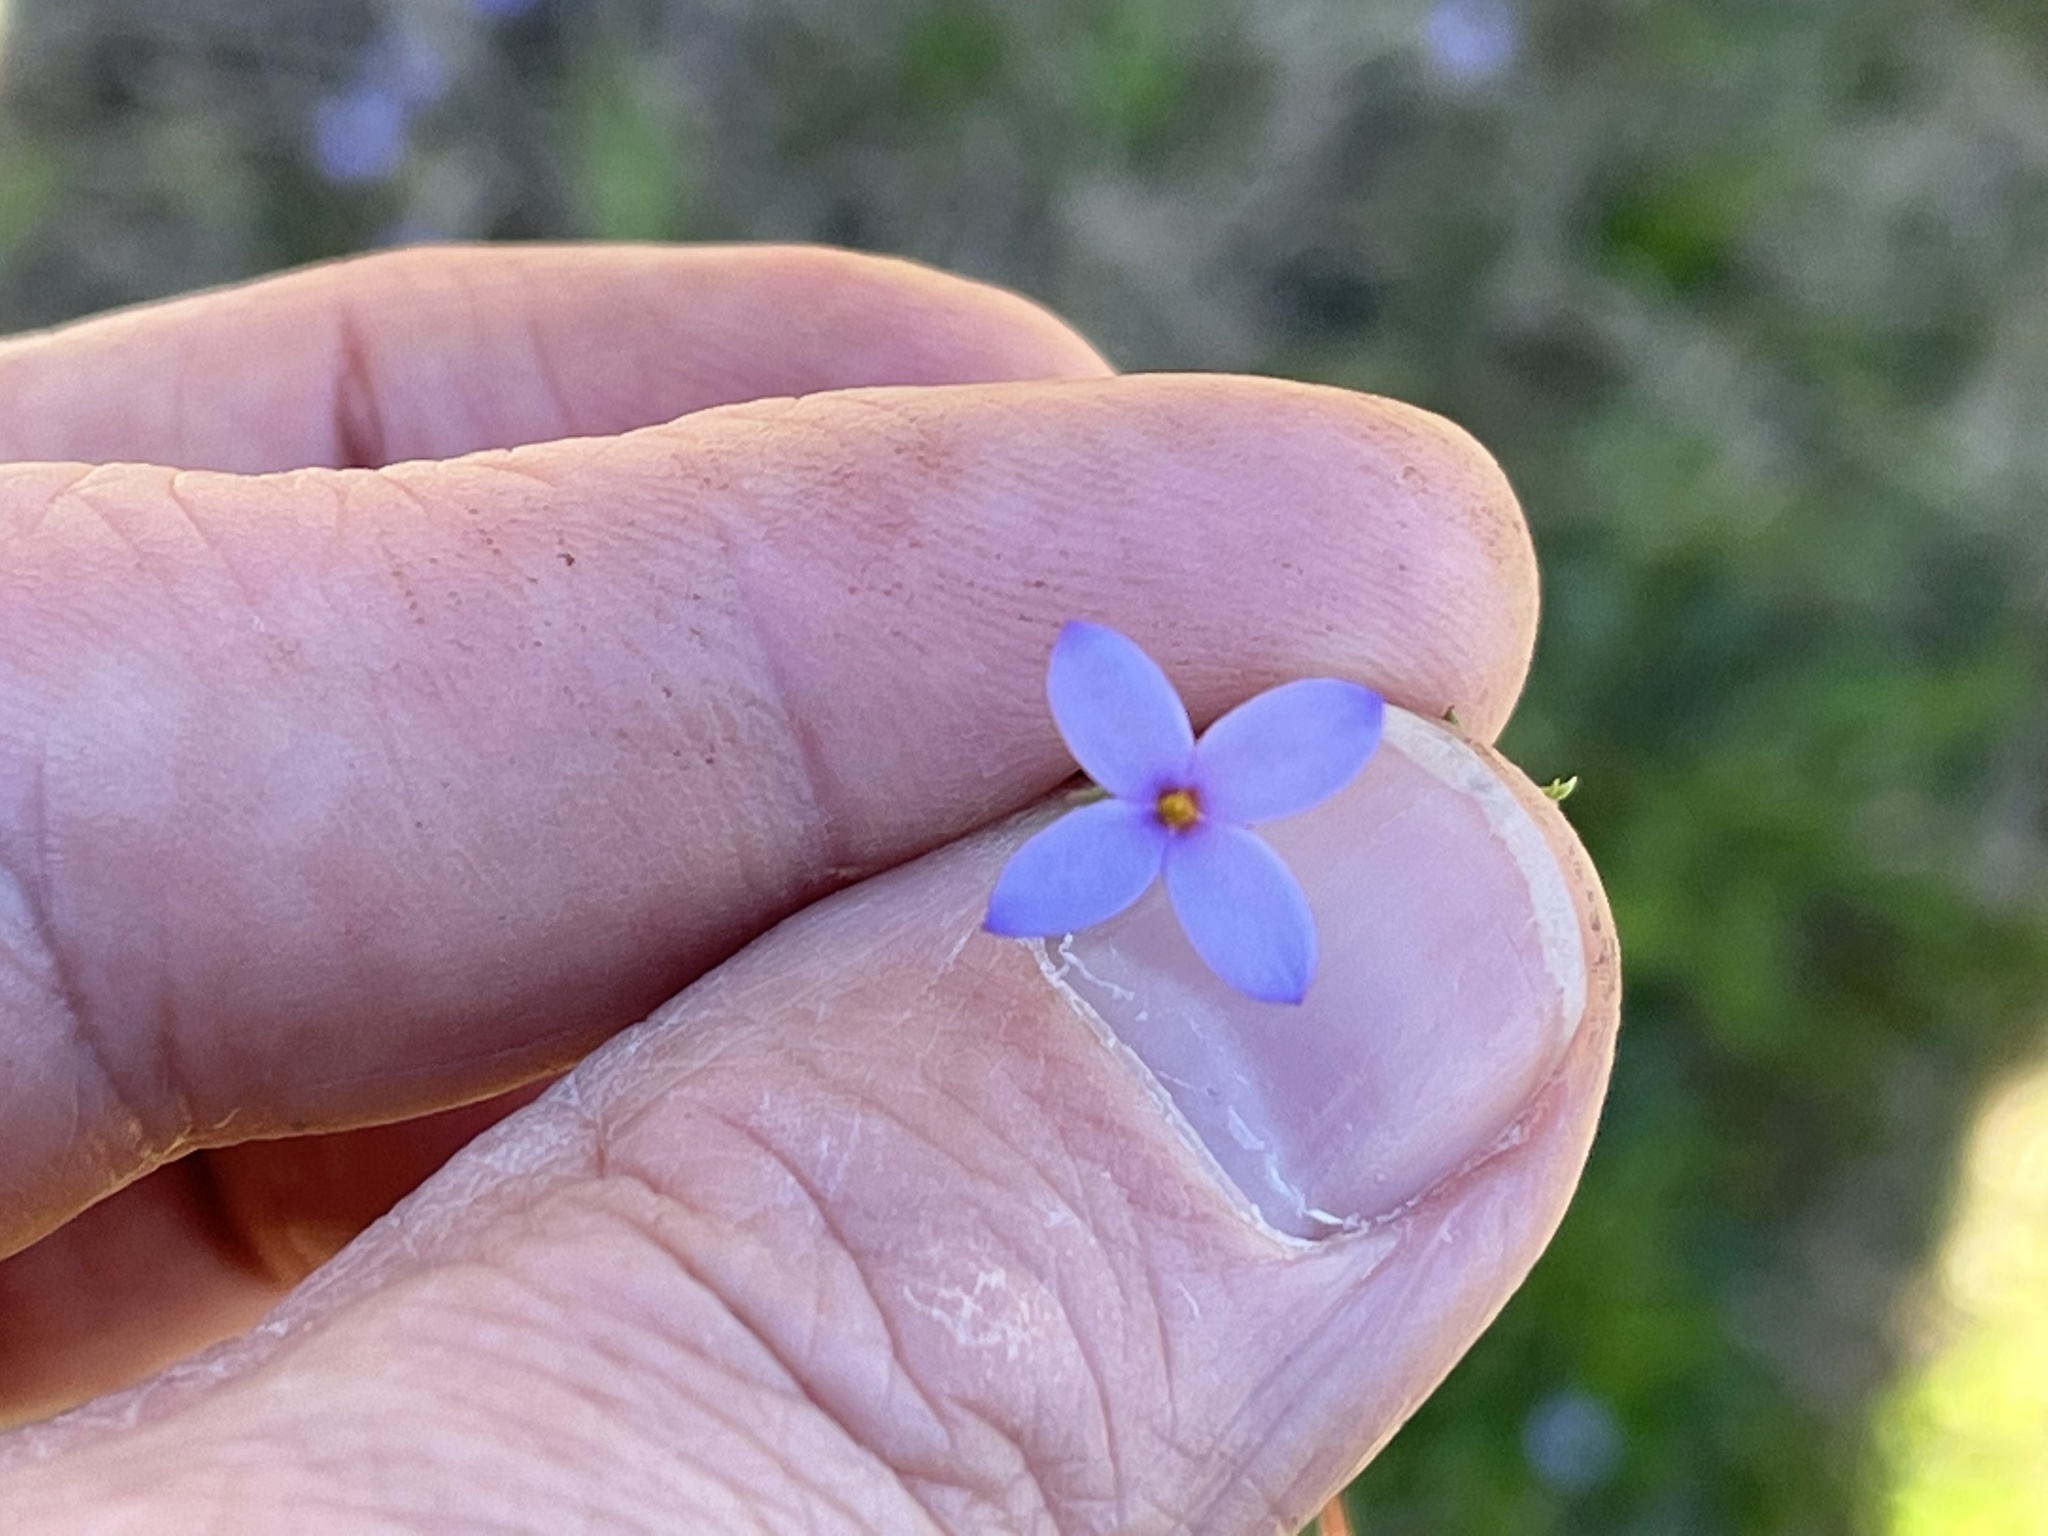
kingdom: Plantae
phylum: Tracheophyta
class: Magnoliopsida
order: Gentianales
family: Rubiaceae
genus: Houstonia
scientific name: Houstonia pusilla
